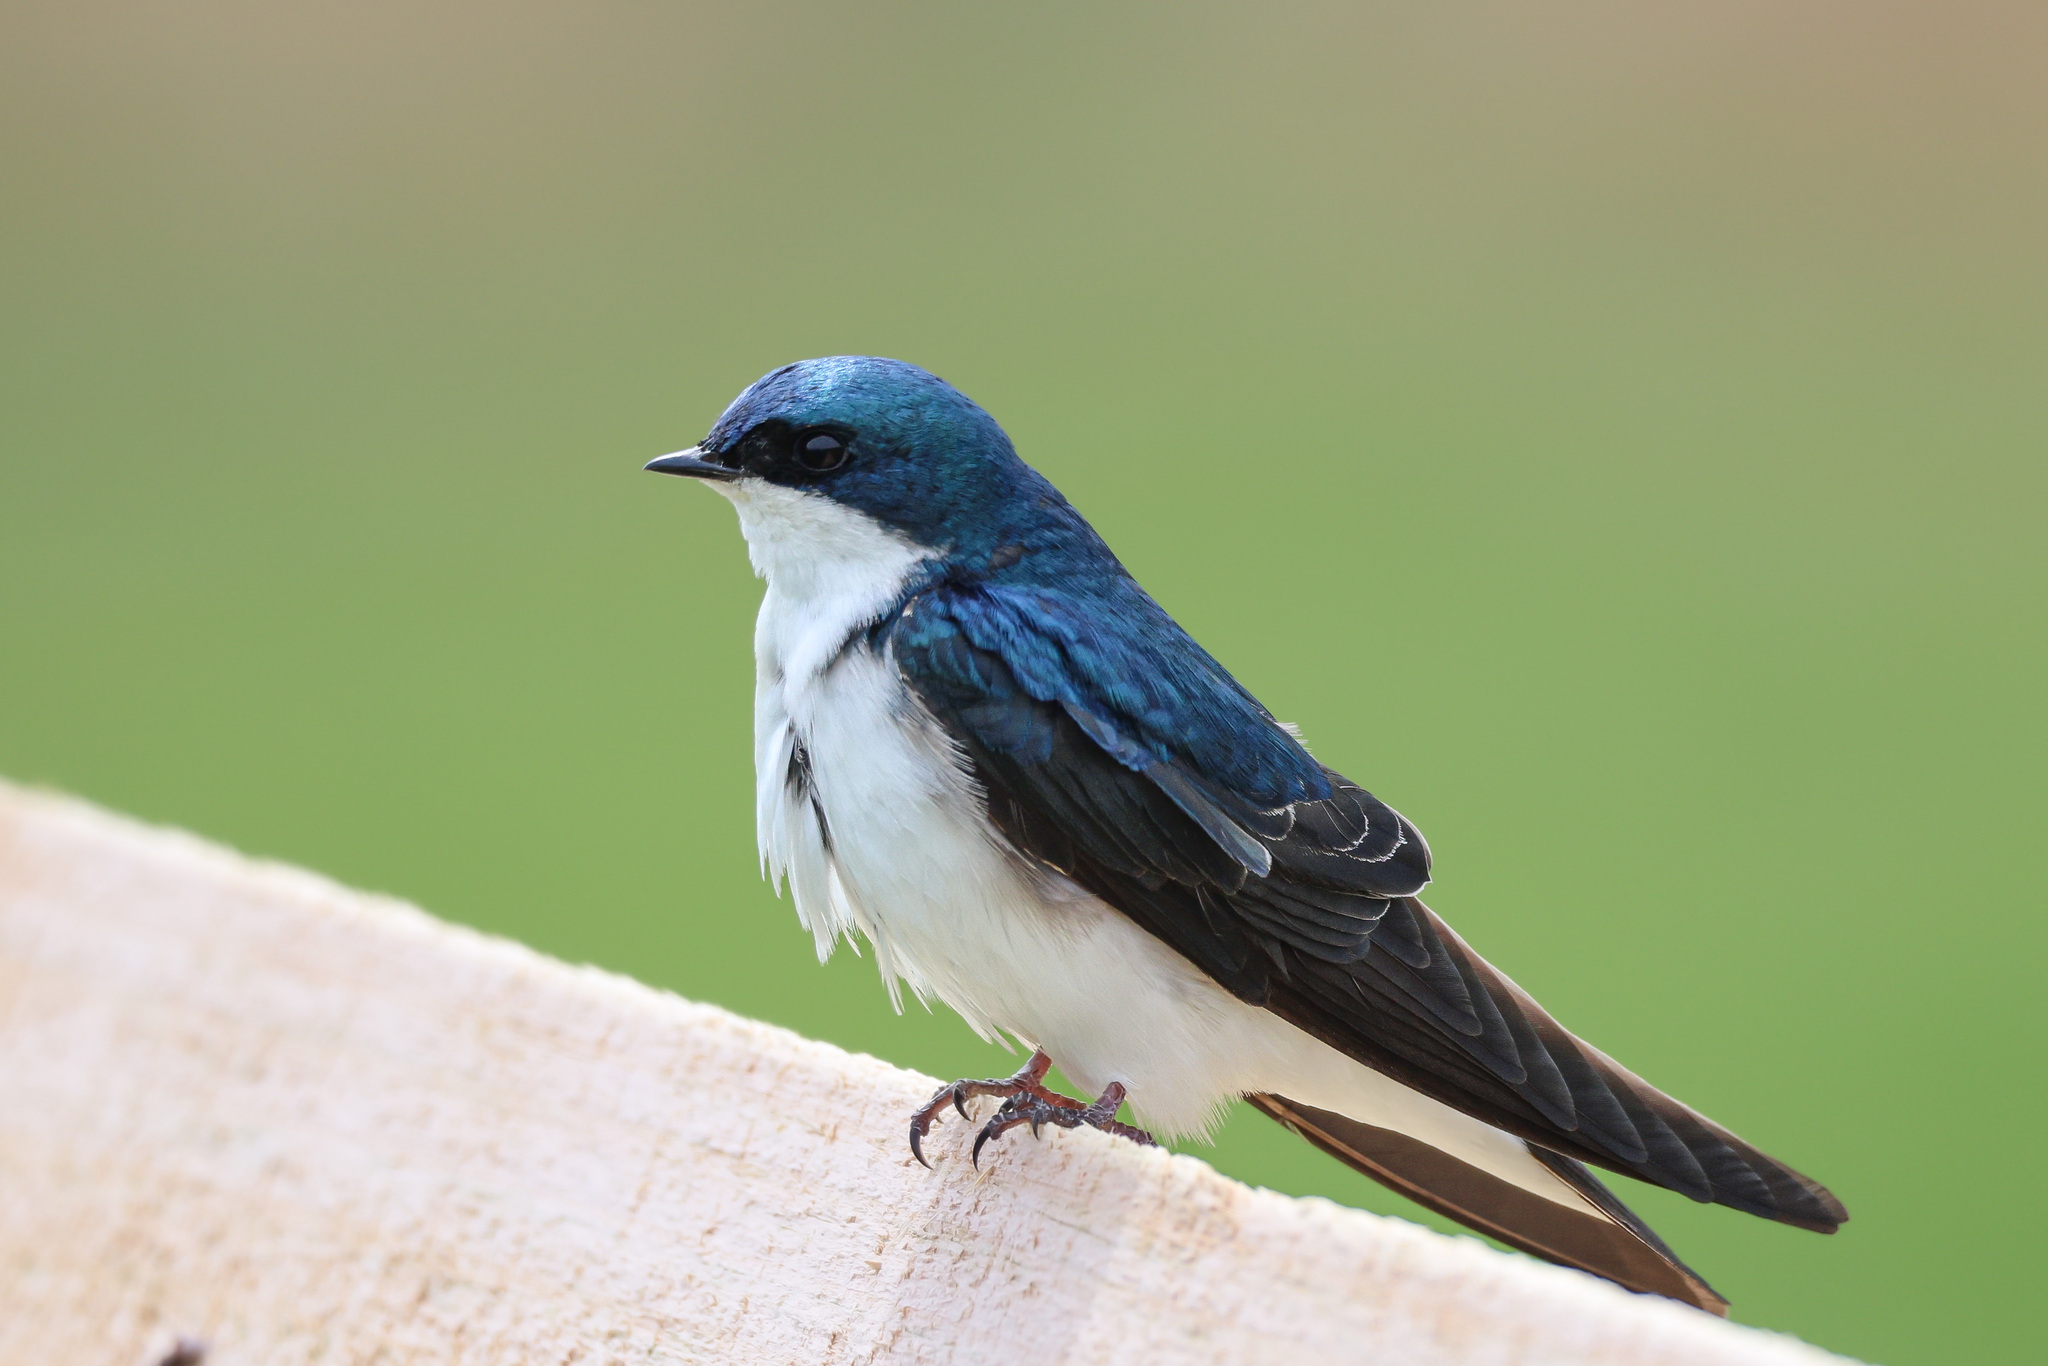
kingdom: Animalia
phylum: Chordata
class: Aves
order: Passeriformes
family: Hirundinidae
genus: Tachycineta
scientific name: Tachycineta bicolor
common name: Tree swallow
